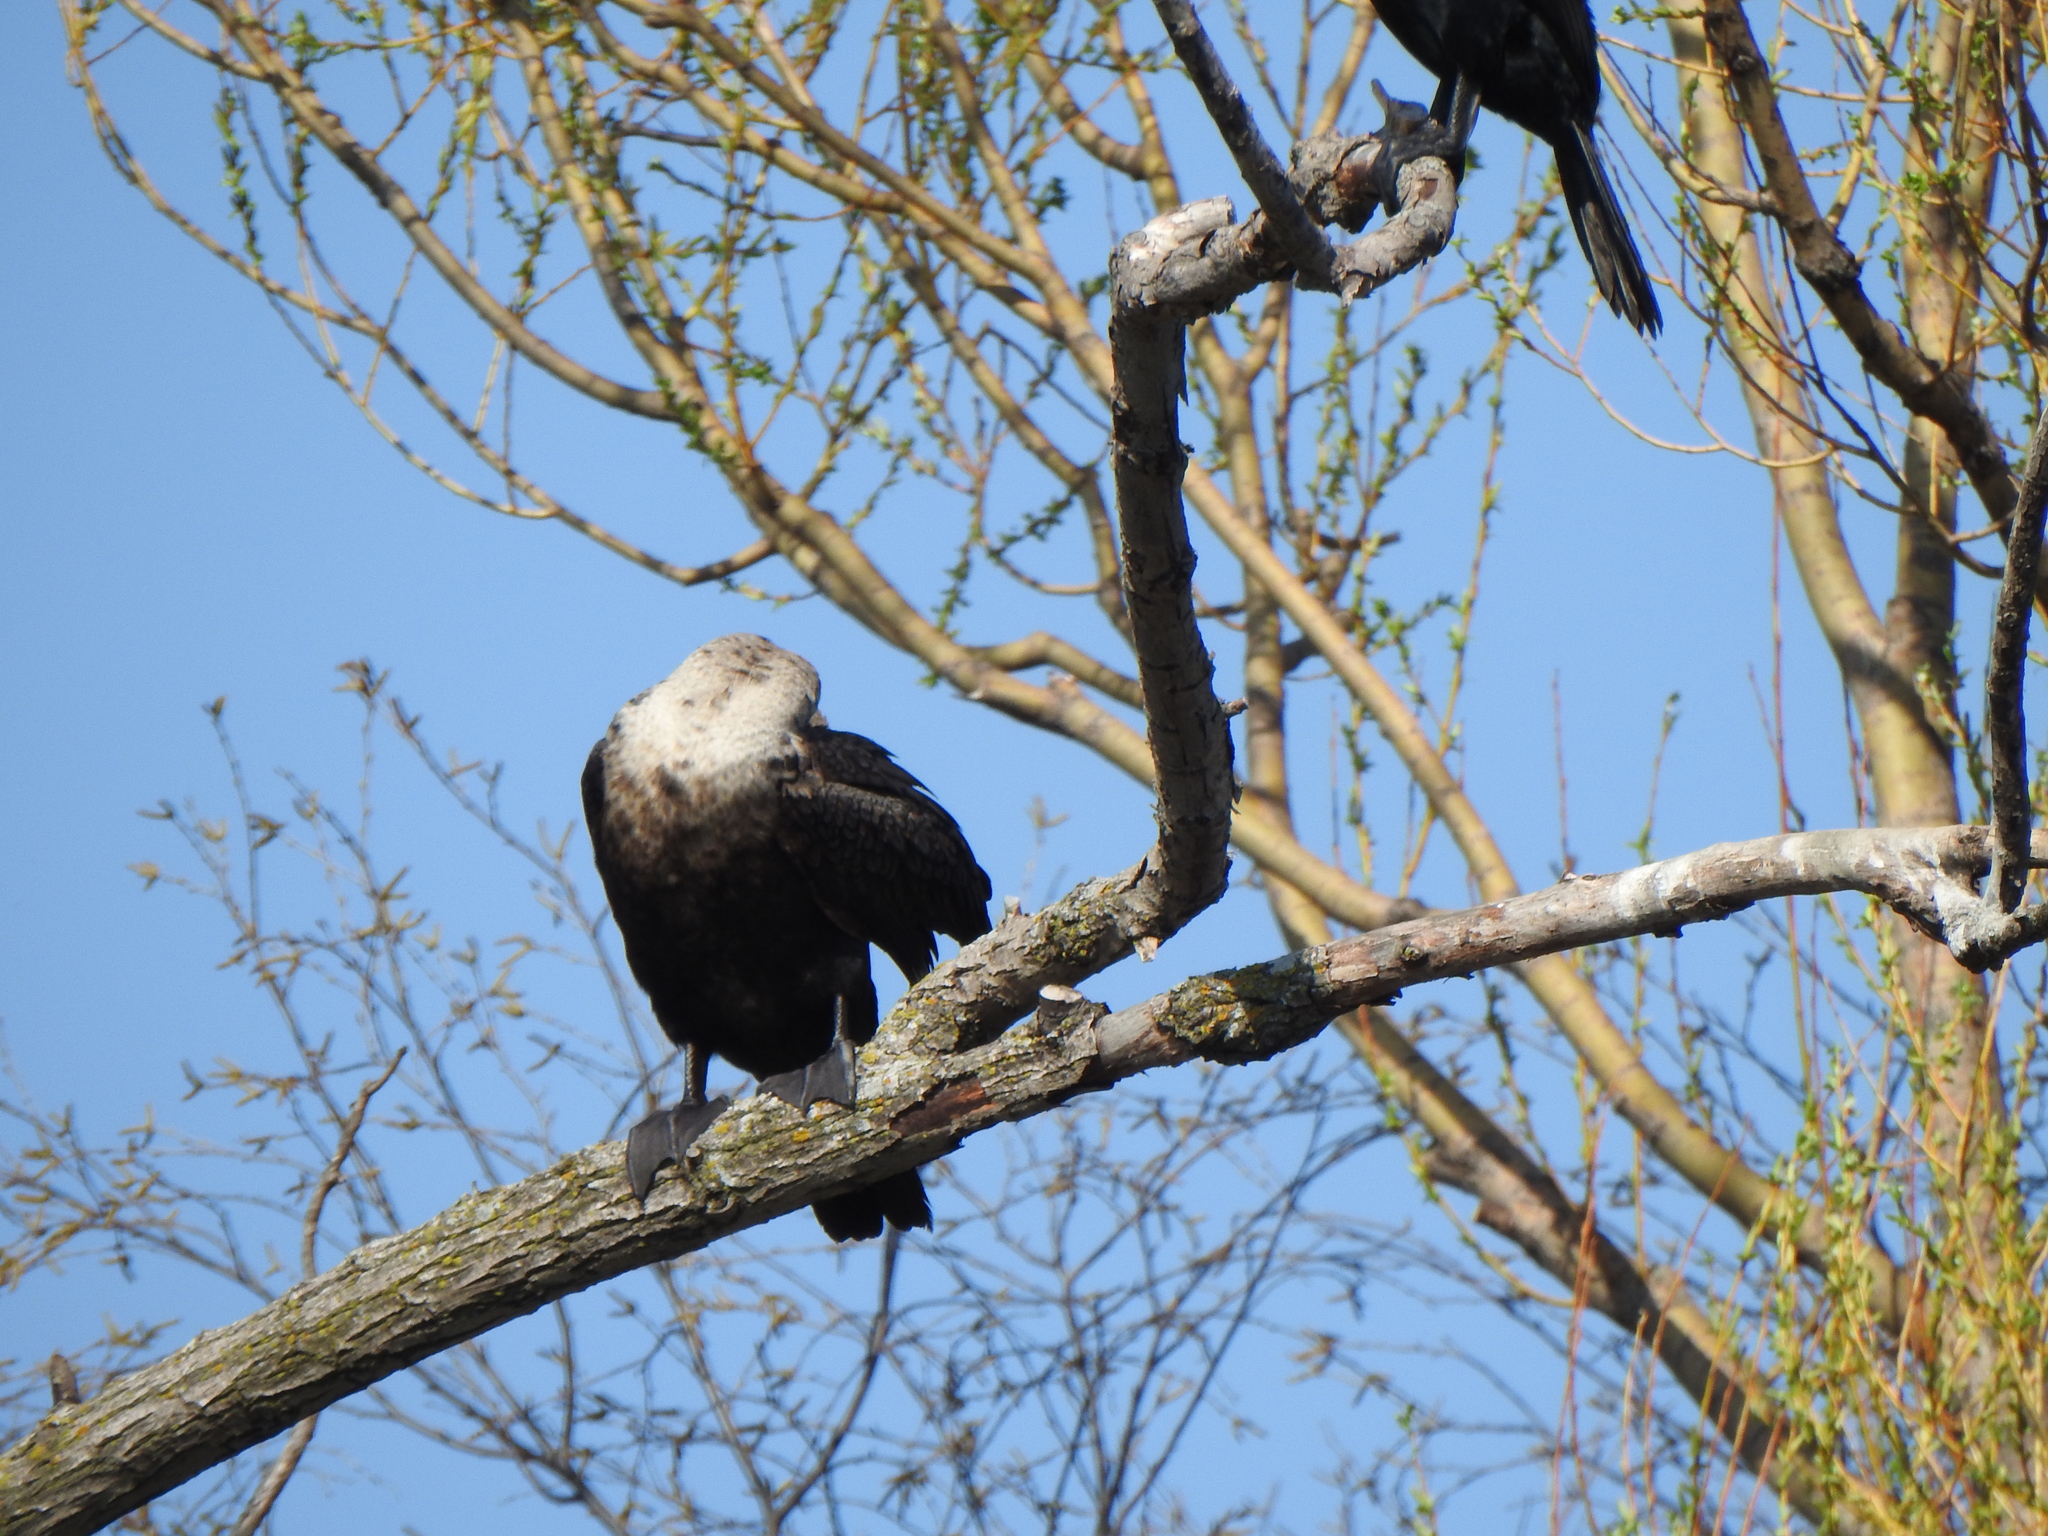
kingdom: Animalia
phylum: Chordata
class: Aves
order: Suliformes
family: Phalacrocoracidae
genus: Phalacrocorax
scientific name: Phalacrocorax auritus
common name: Double-crested cormorant
